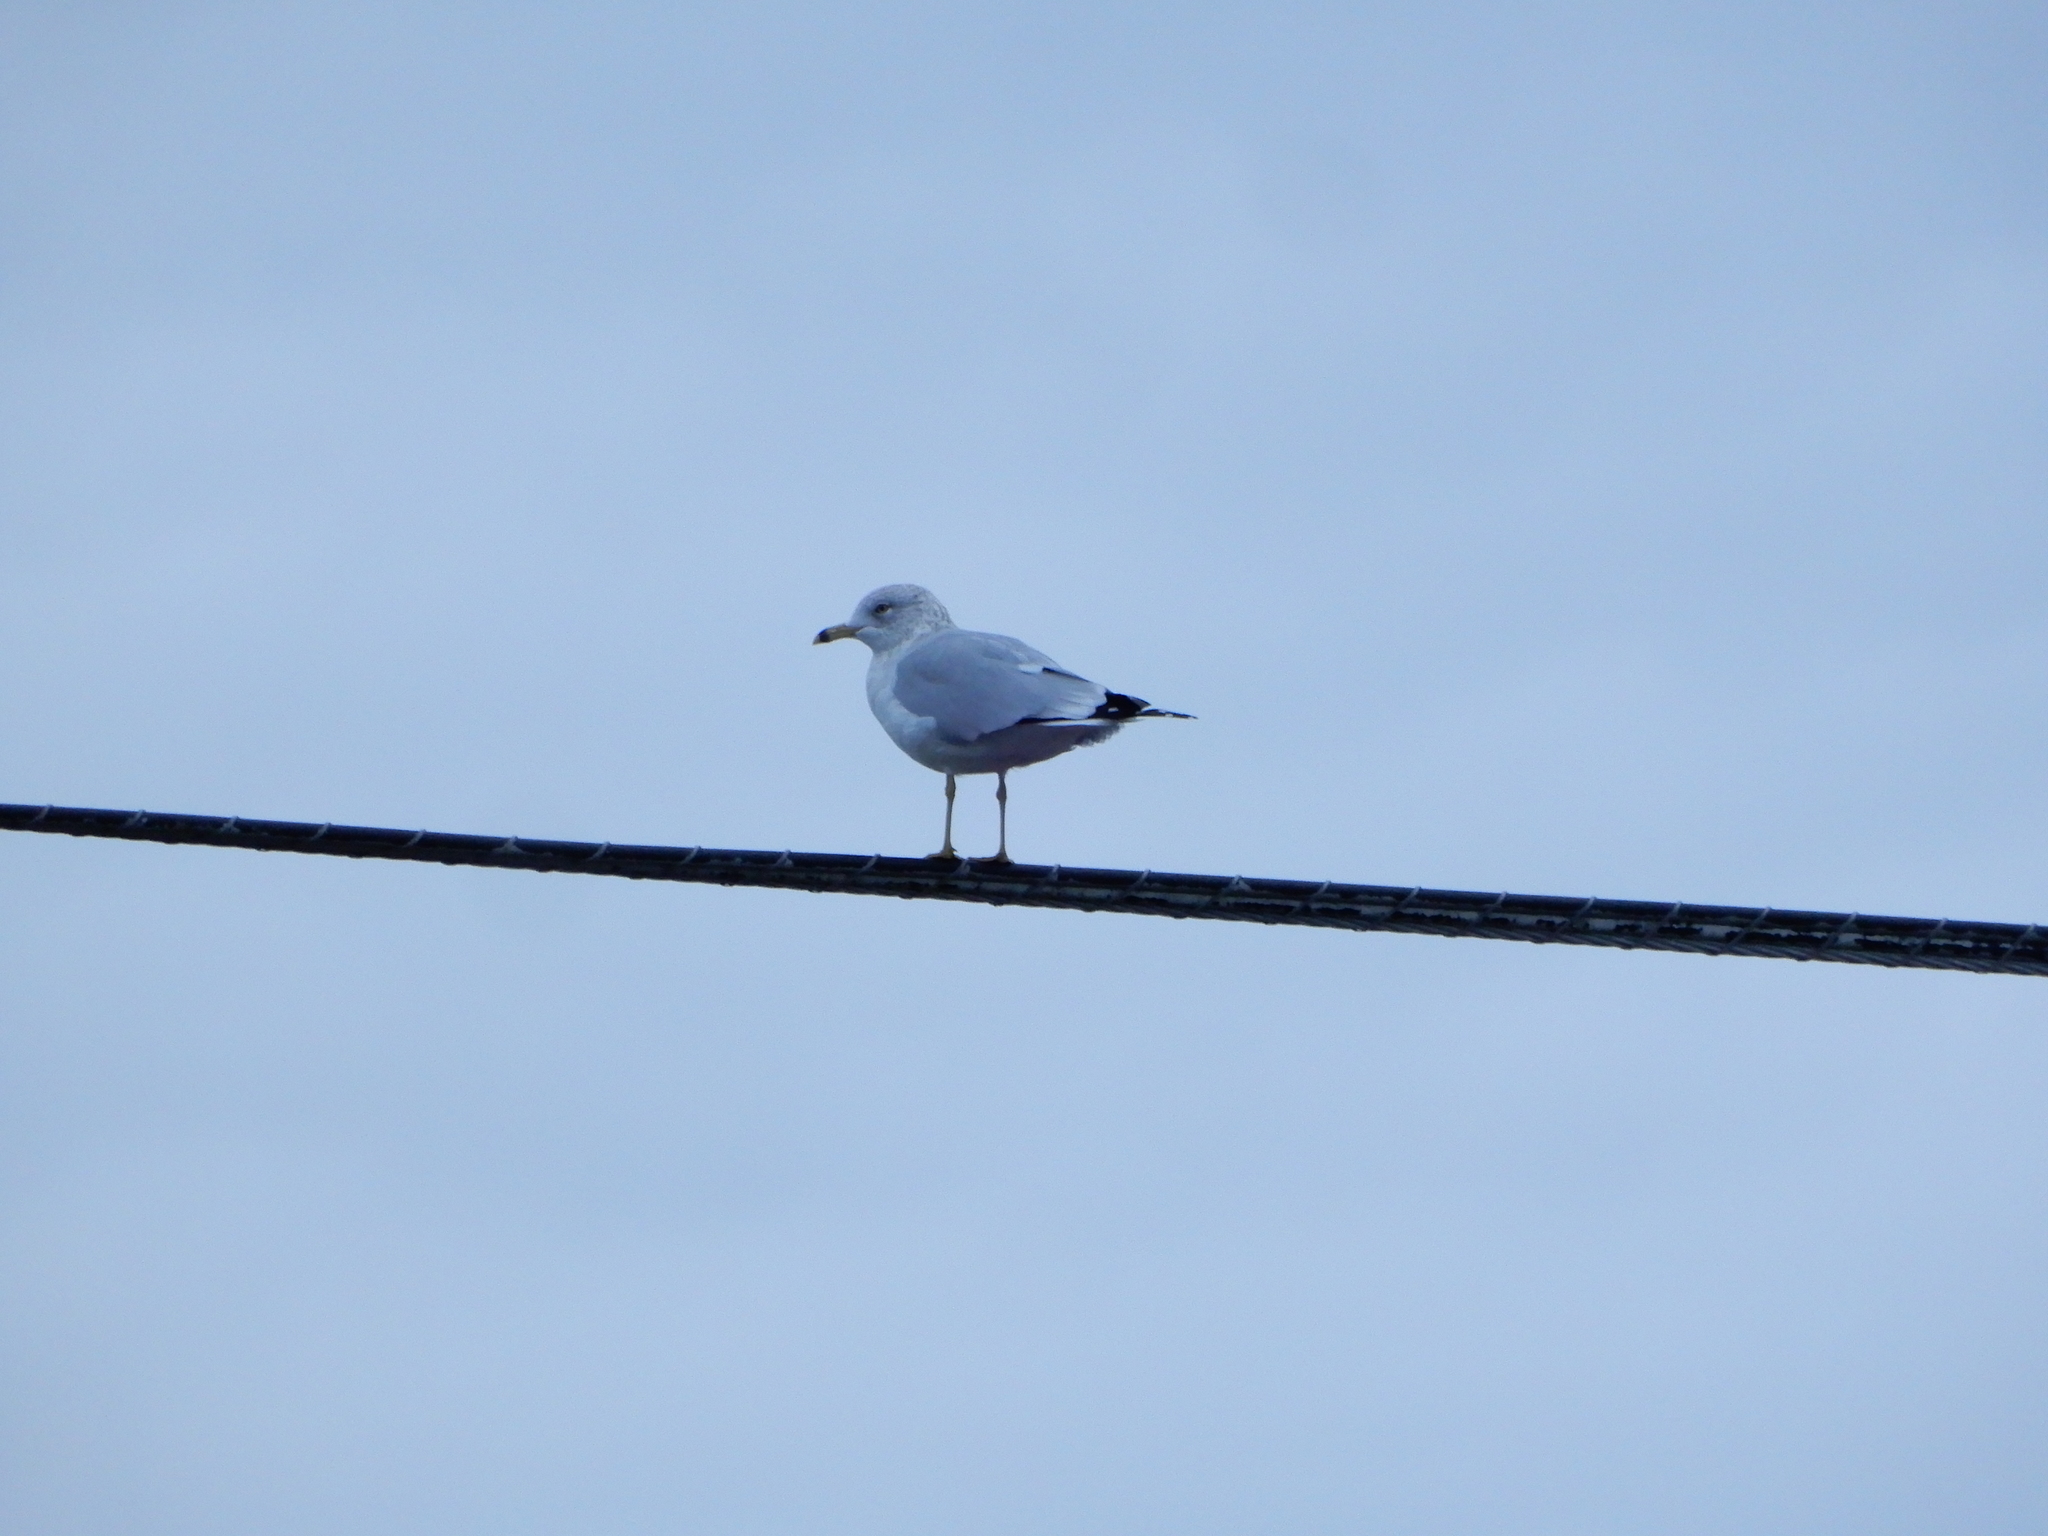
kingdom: Animalia
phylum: Chordata
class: Aves
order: Charadriiformes
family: Laridae
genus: Larus
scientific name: Larus delawarensis
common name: Ring-billed gull
